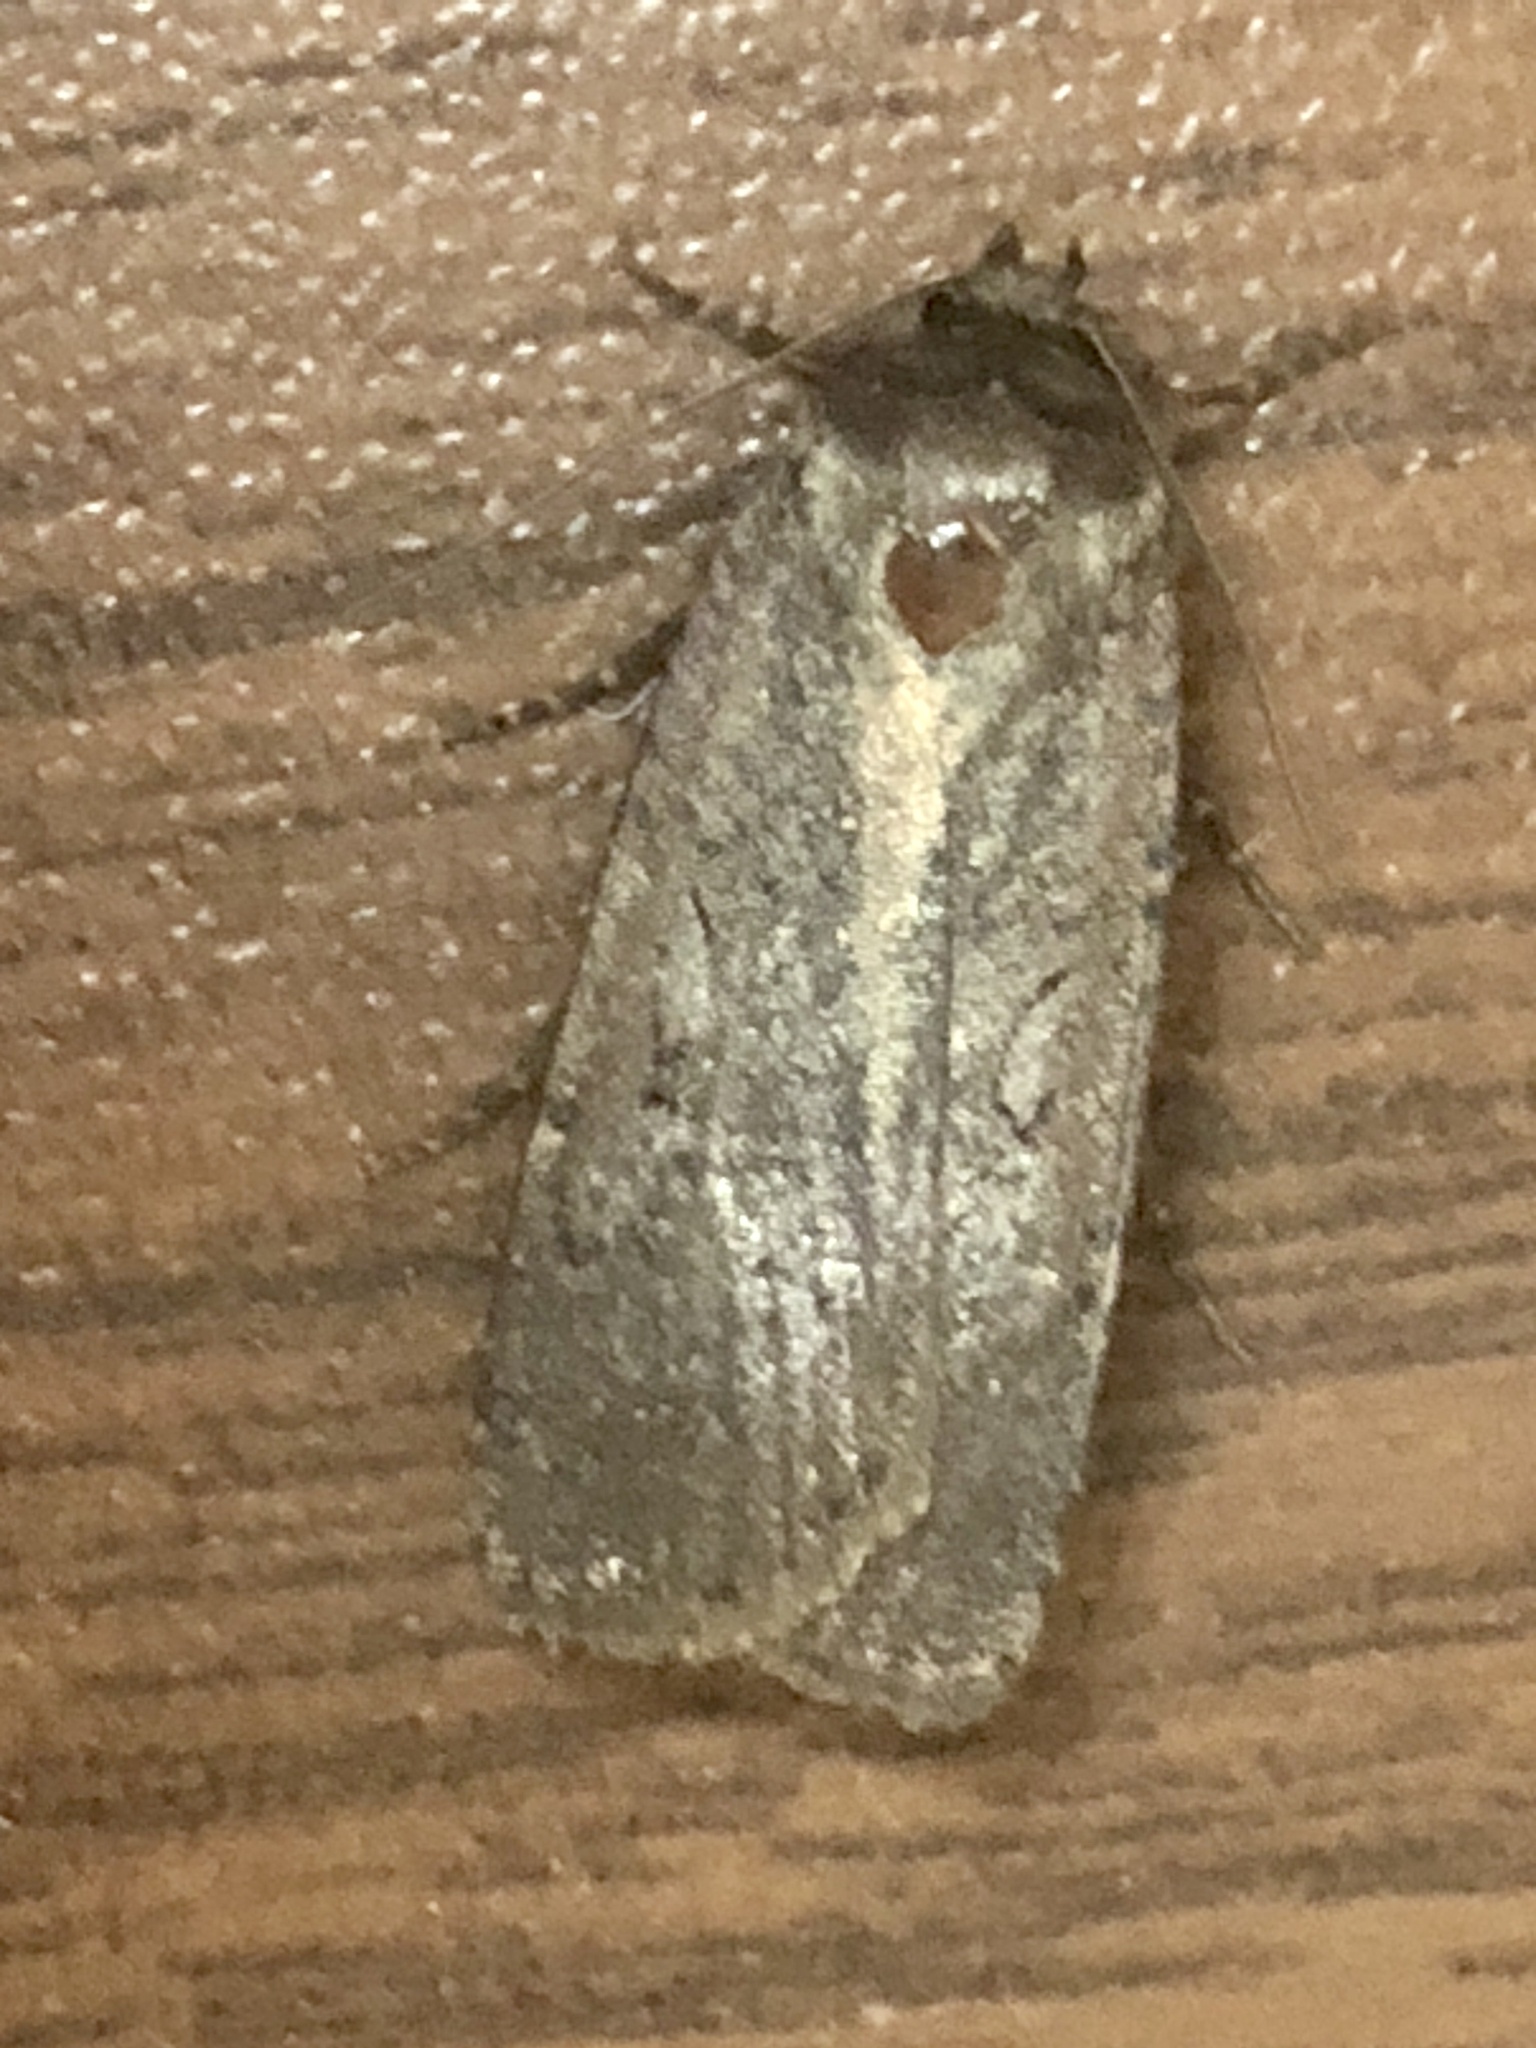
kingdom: Animalia
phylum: Arthropoda
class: Insecta
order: Lepidoptera
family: Noctuidae
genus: Spaelotis
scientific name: Spaelotis clandestina
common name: Clandestine dart
